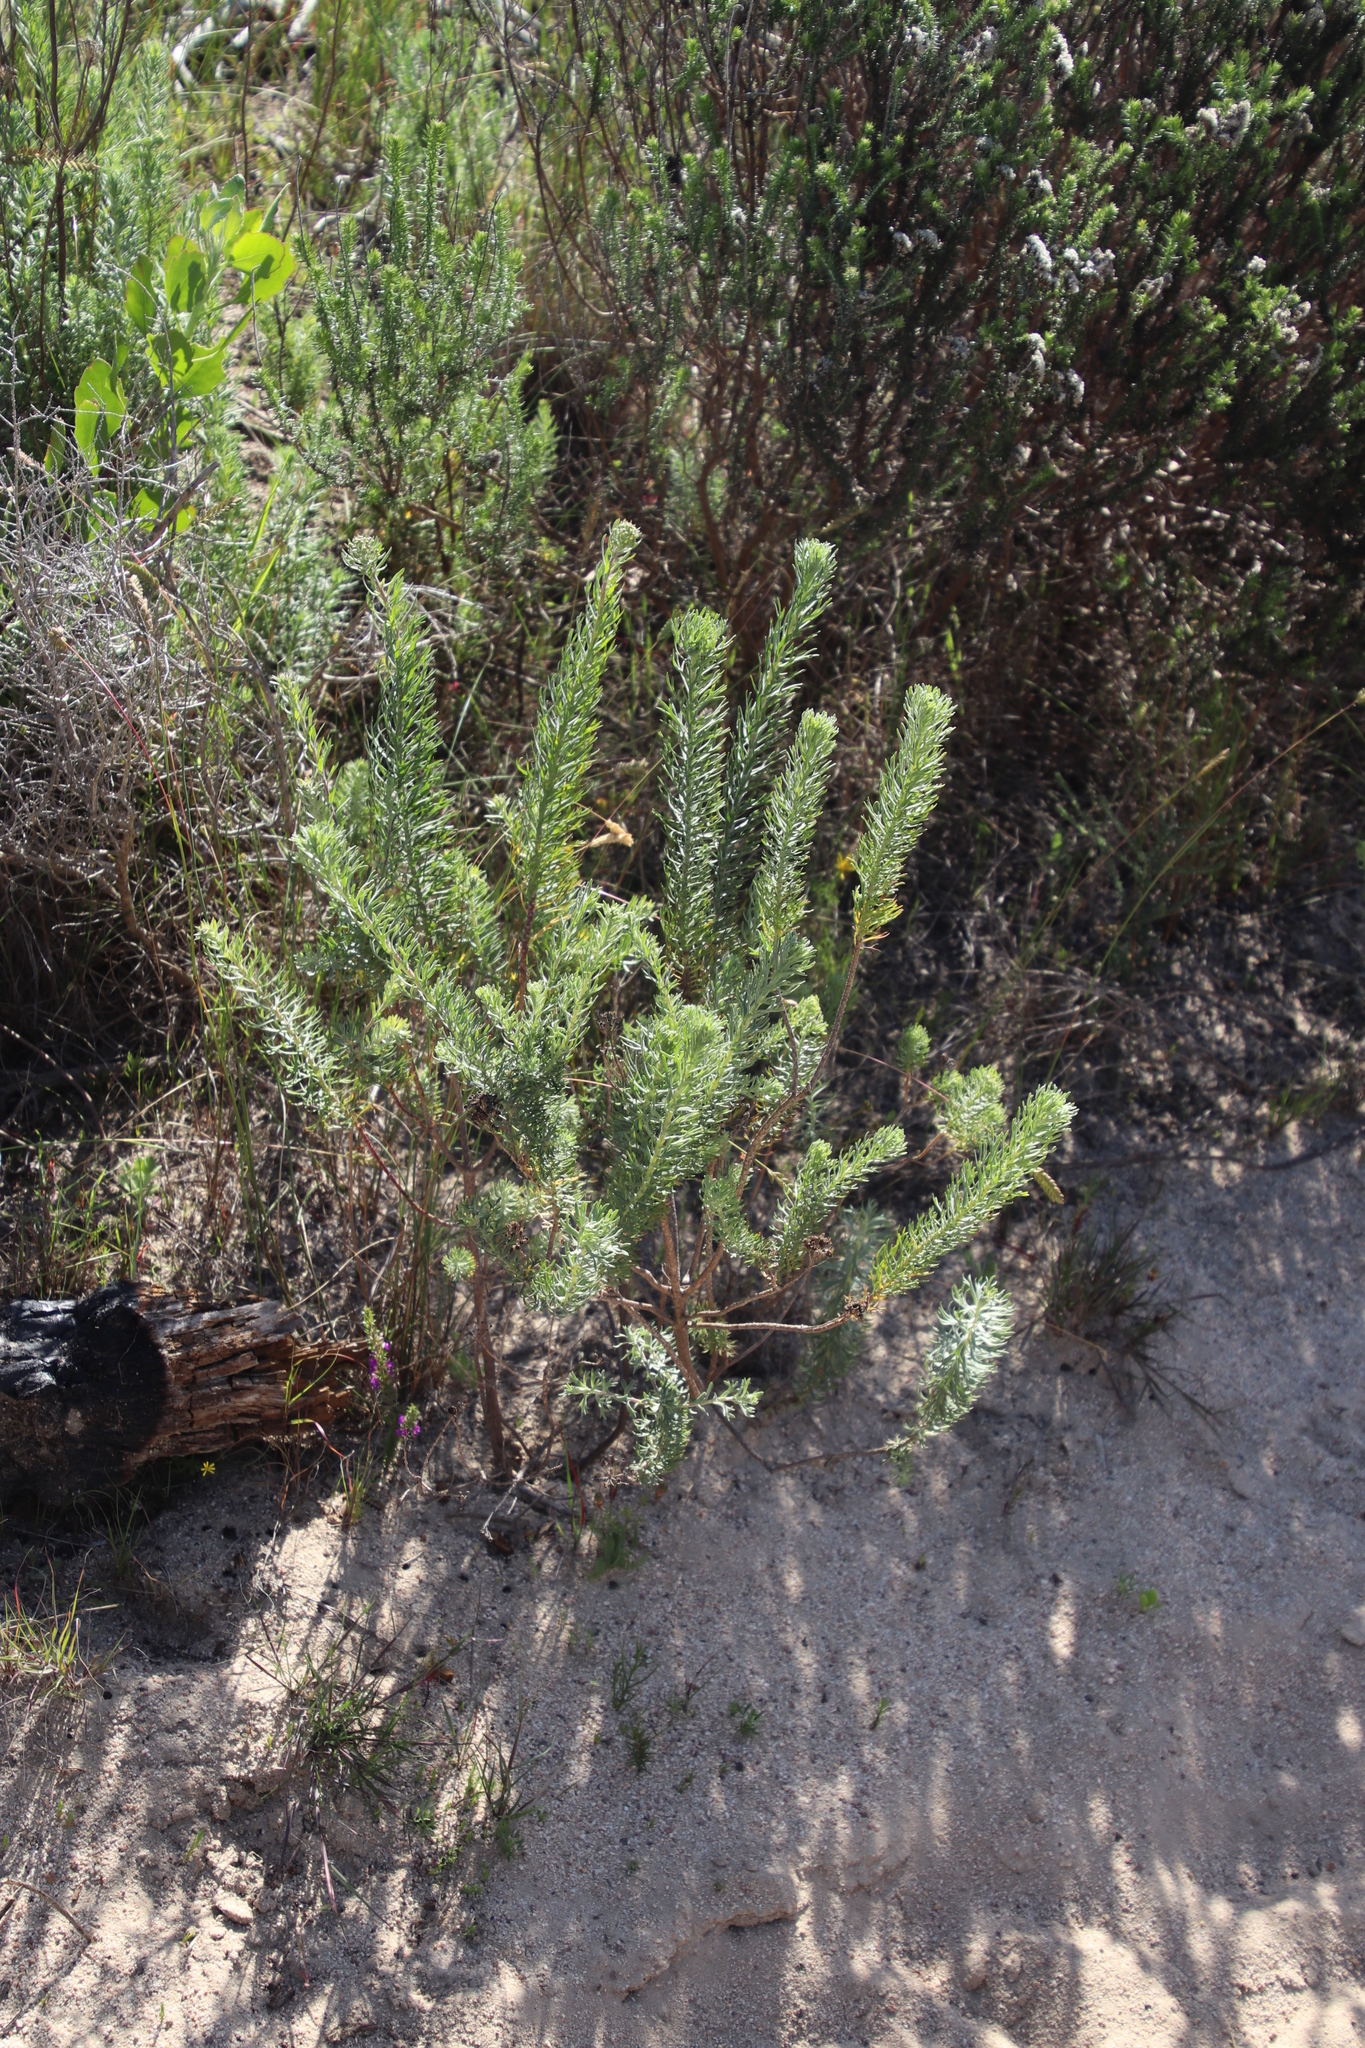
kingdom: Plantae
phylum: Tracheophyta
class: Magnoliopsida
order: Asterales
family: Asteraceae
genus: Athanasia
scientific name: Athanasia crithmifolia
